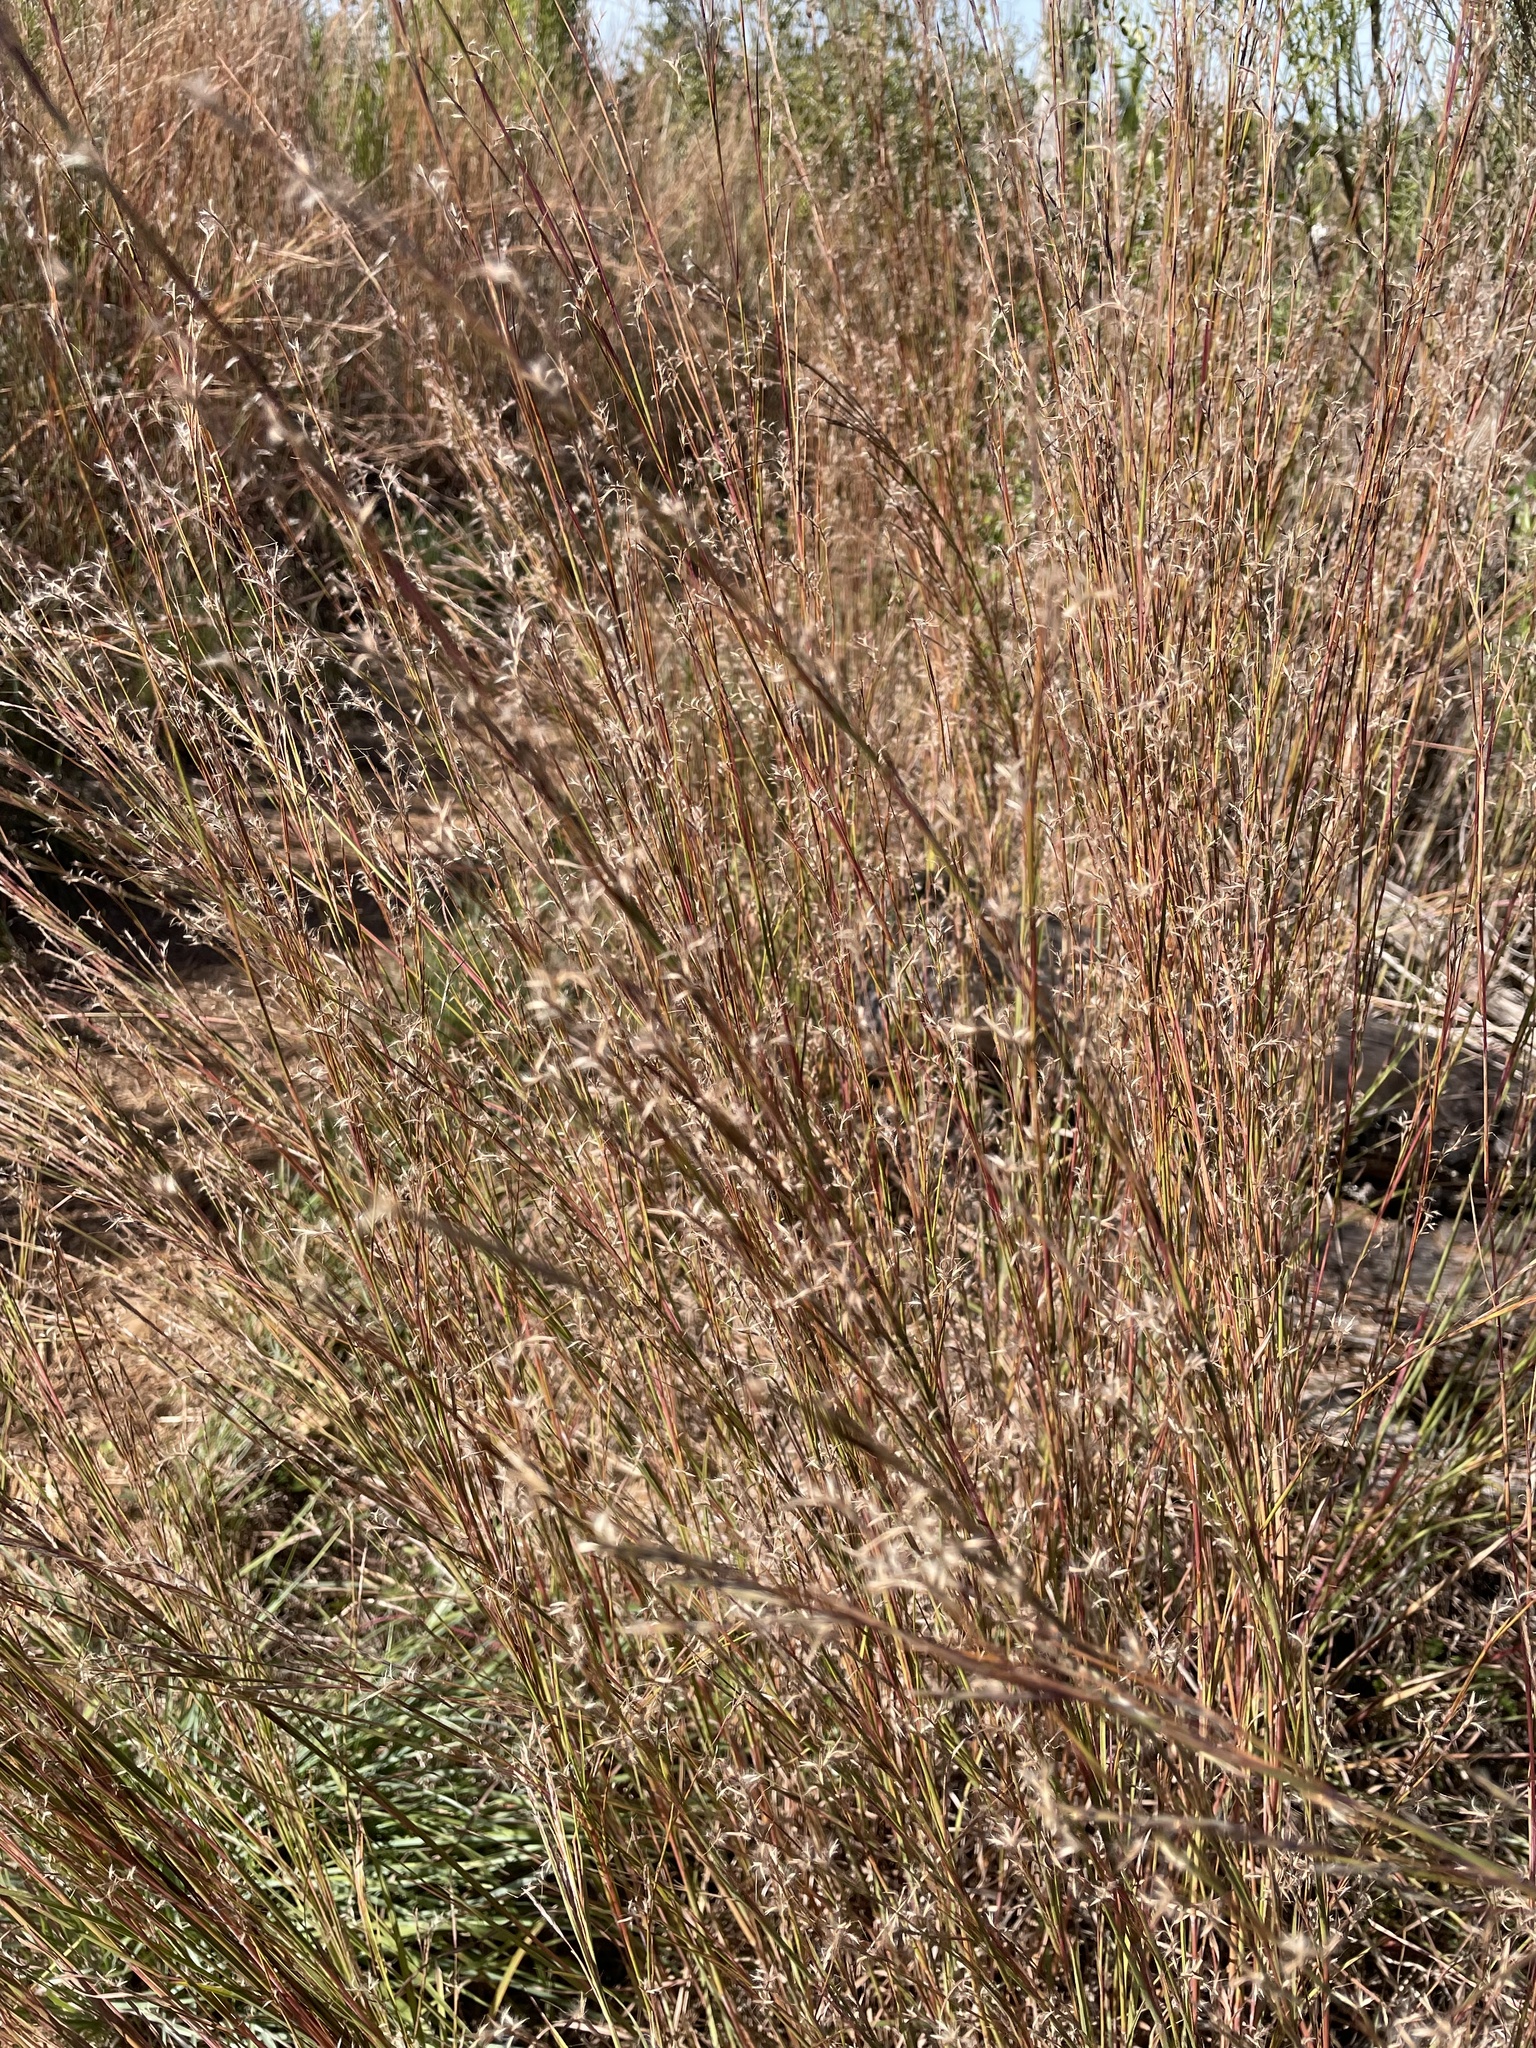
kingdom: Plantae
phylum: Tracheophyta
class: Liliopsida
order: Poales
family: Poaceae
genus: Schizachyrium
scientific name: Schizachyrium scoparium
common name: Little bluestem
